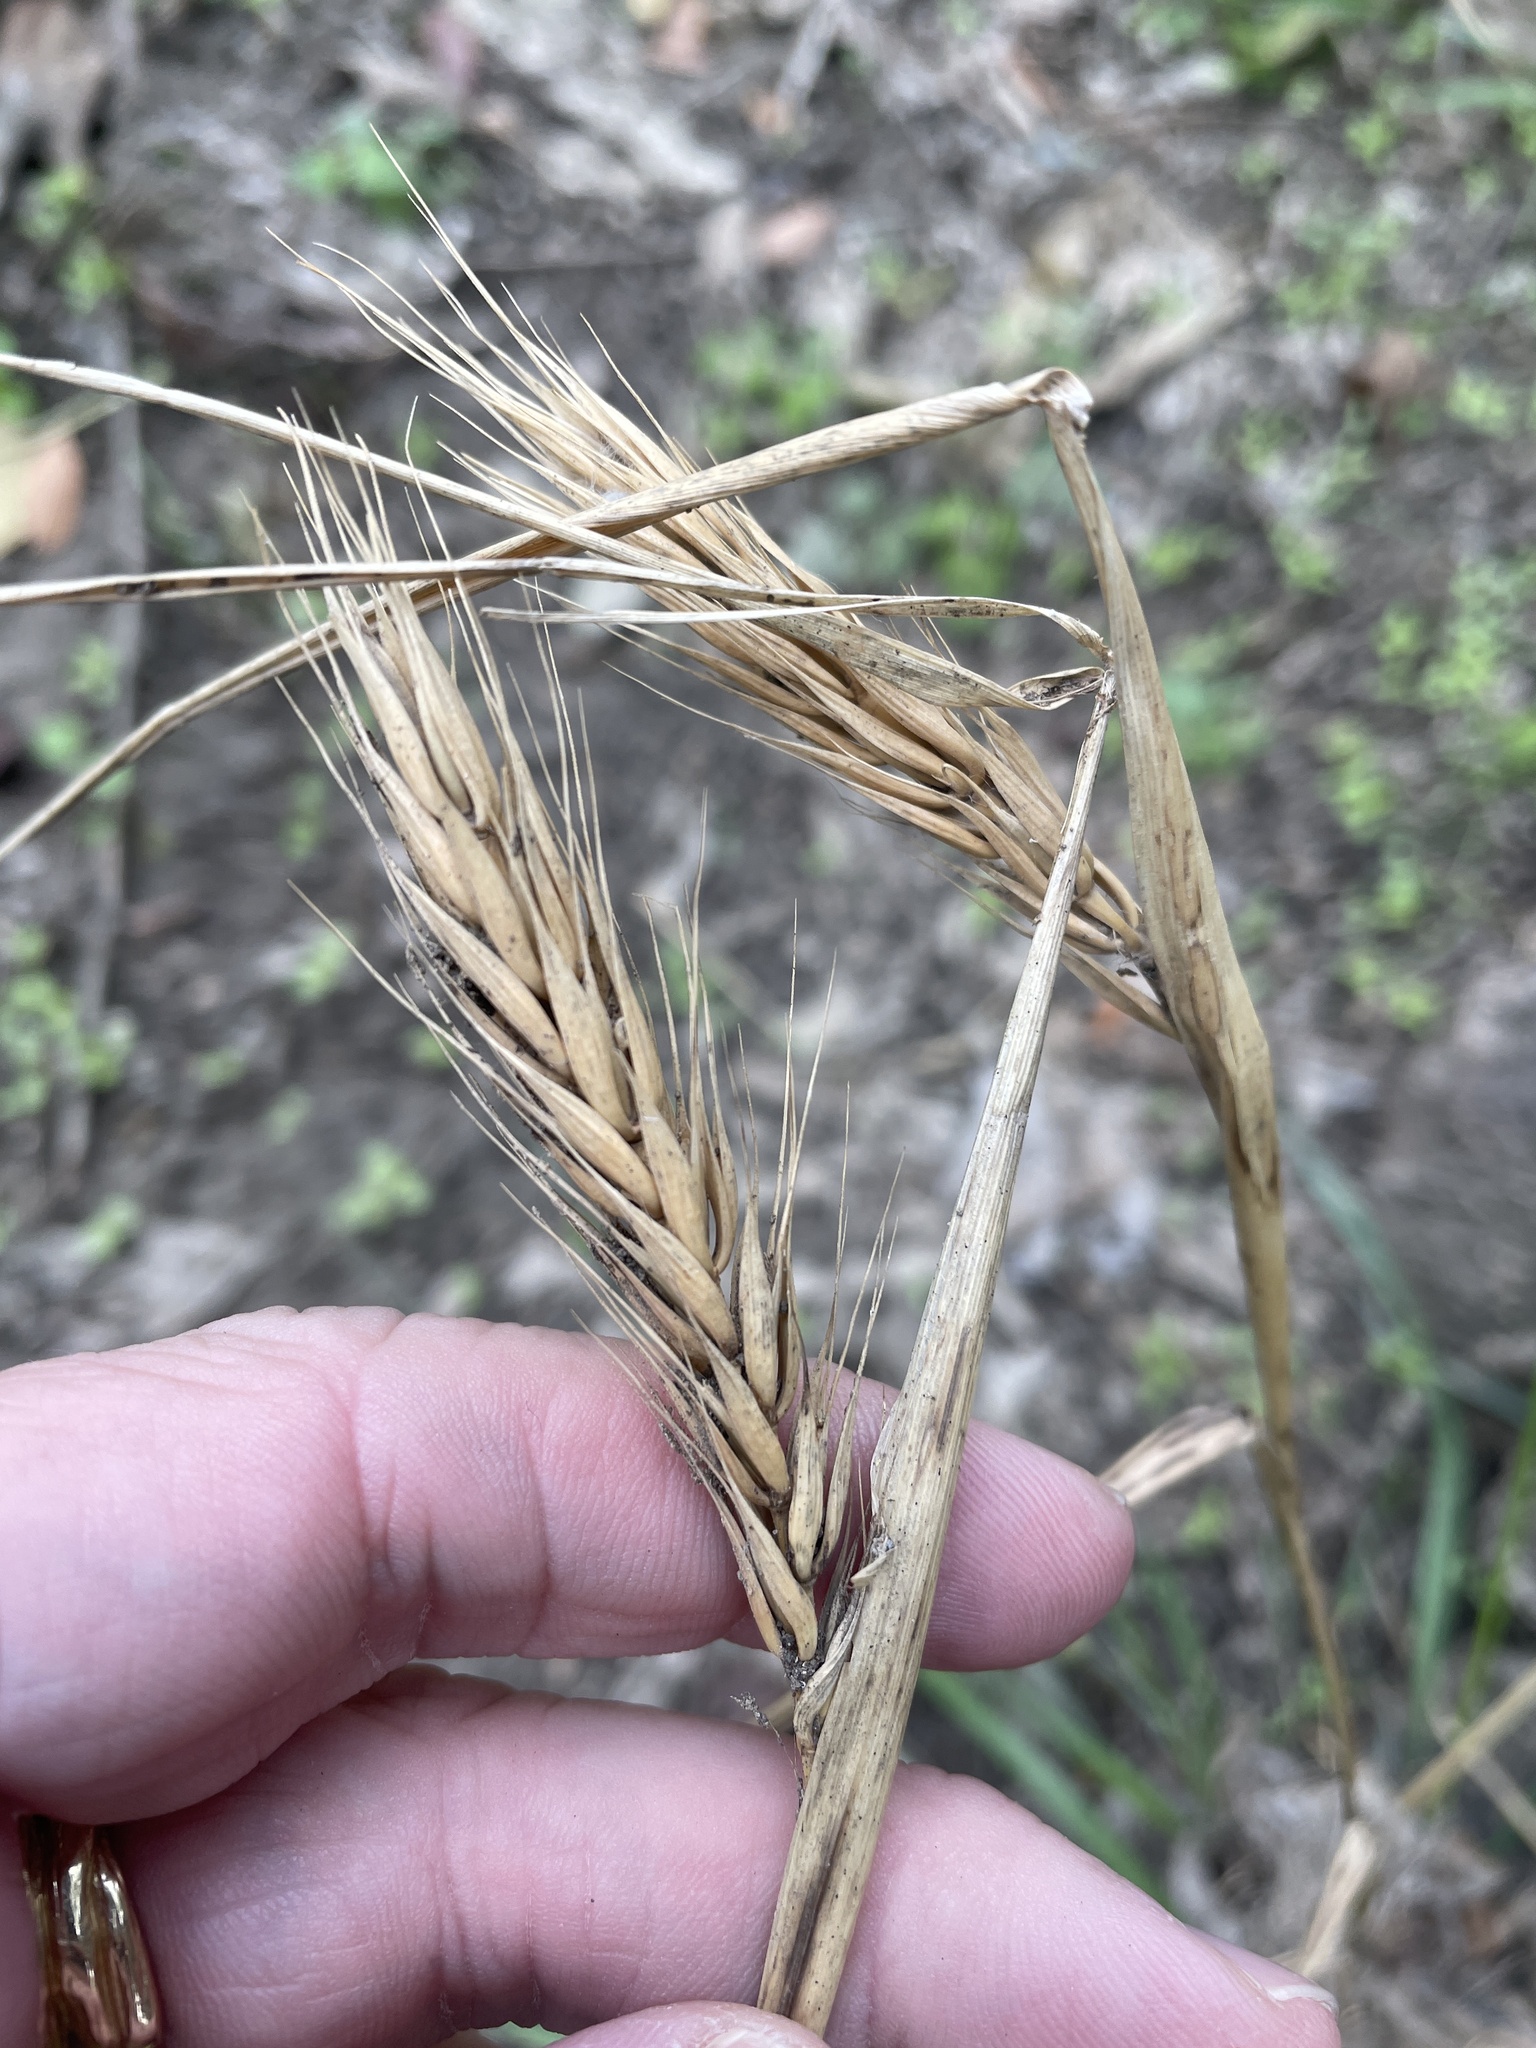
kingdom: Plantae
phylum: Tracheophyta
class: Liliopsida
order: Poales
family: Poaceae
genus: Elymus
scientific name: Elymus virginicus
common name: Common eastern wildrye
